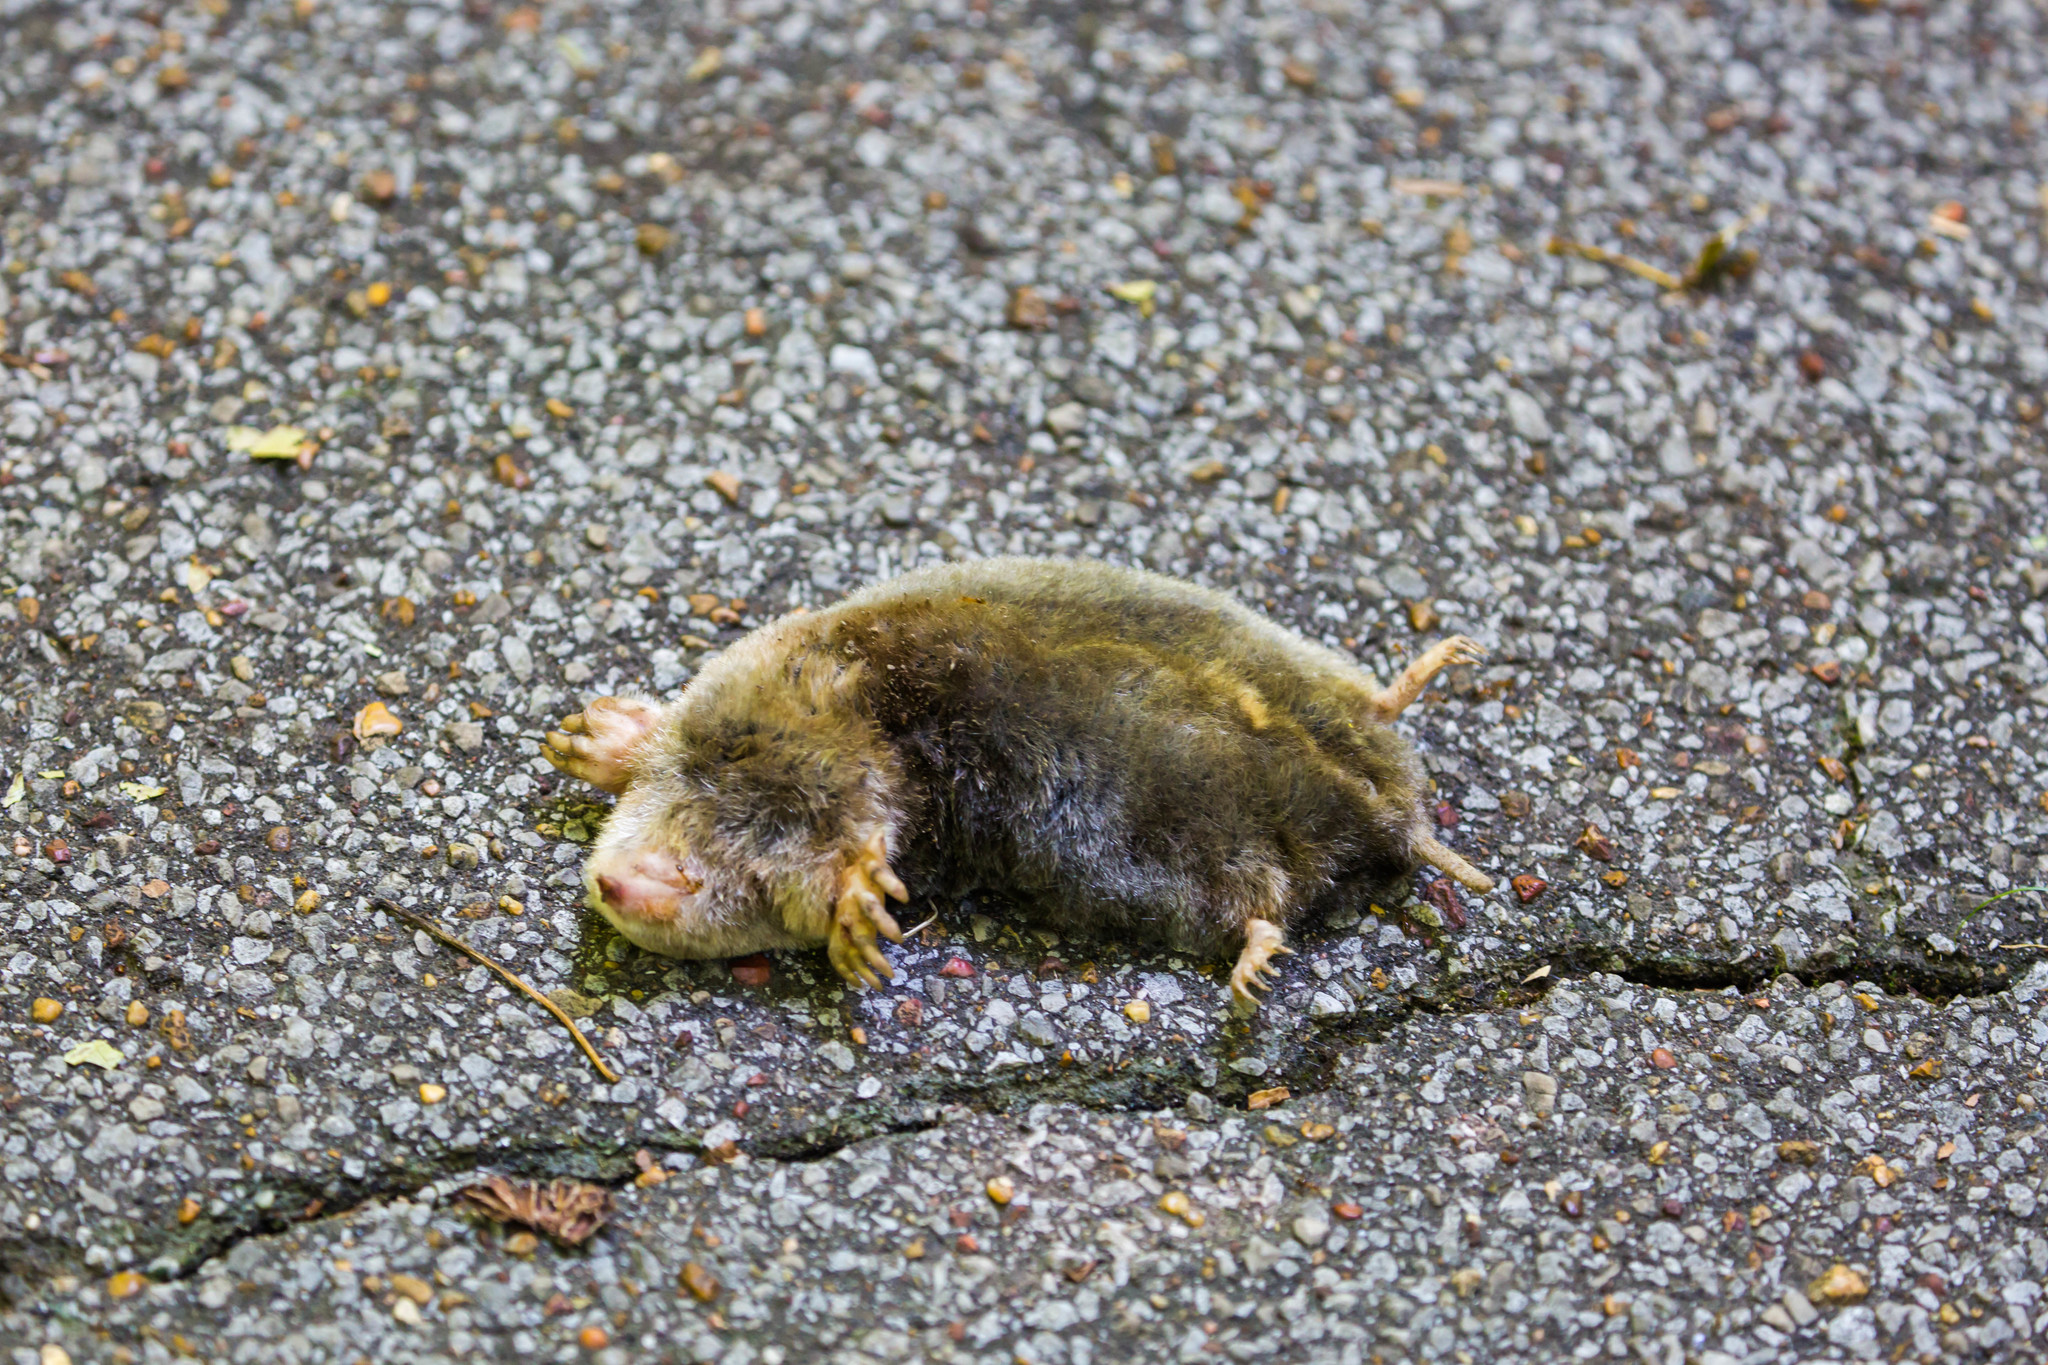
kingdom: Animalia
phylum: Chordata
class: Mammalia
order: Soricomorpha
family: Talpidae
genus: Scalopus
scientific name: Scalopus aquaticus
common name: Eastern mole
